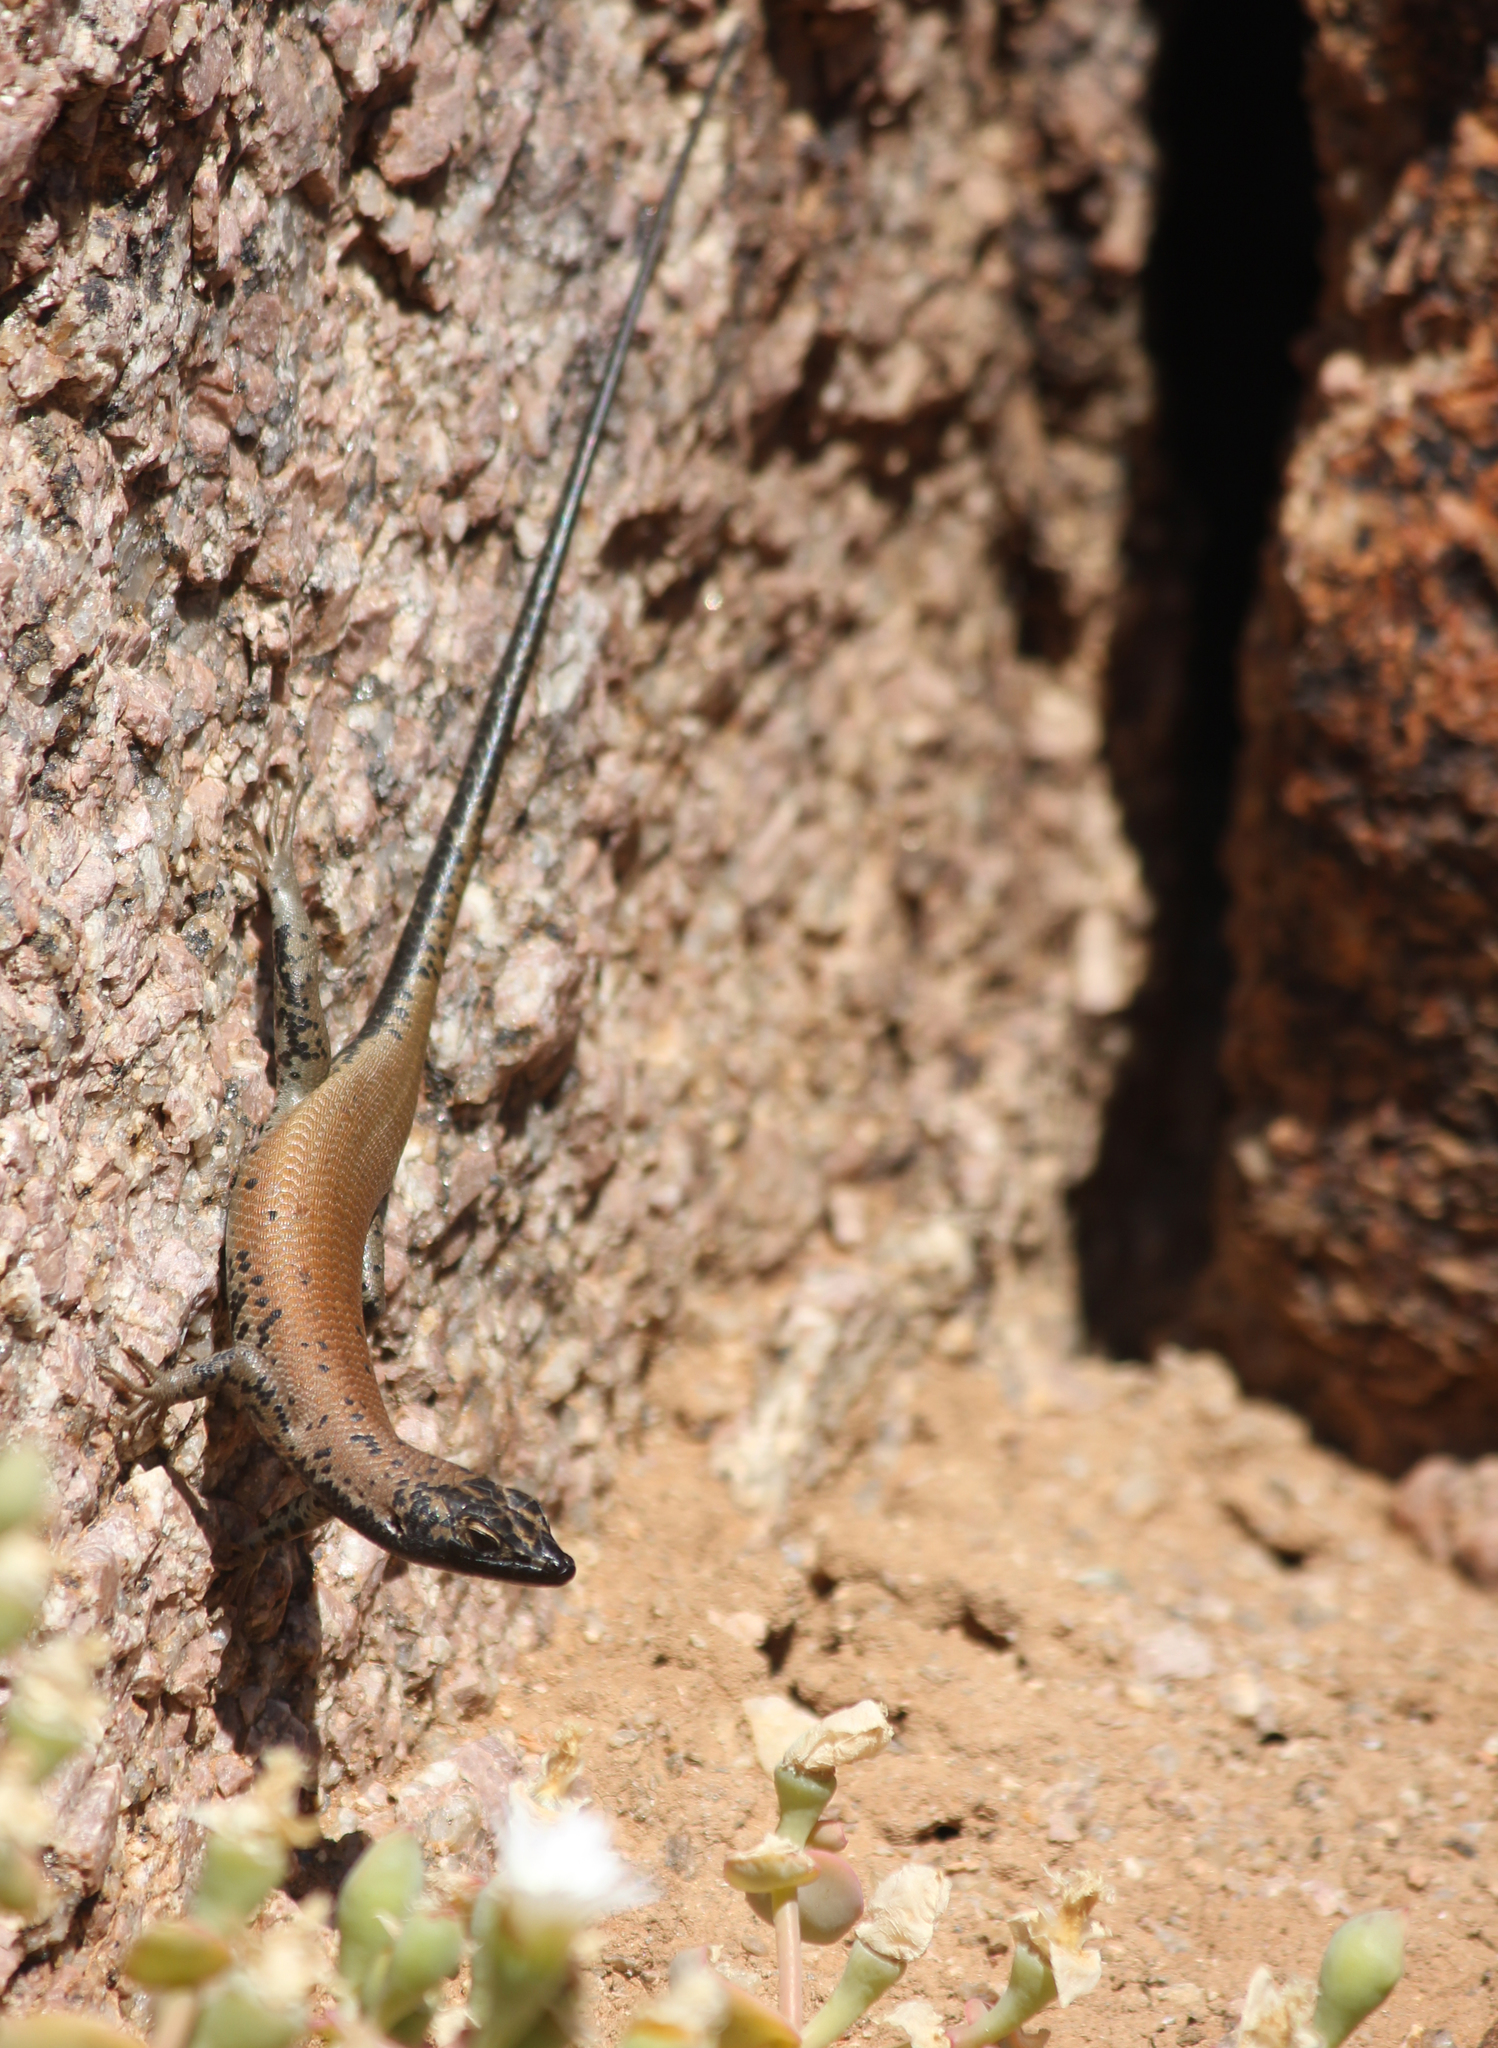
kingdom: Animalia
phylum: Chordata
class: Squamata
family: Scincidae
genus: Trachylepis
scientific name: Trachylepis sulcata
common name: Western rock skink
